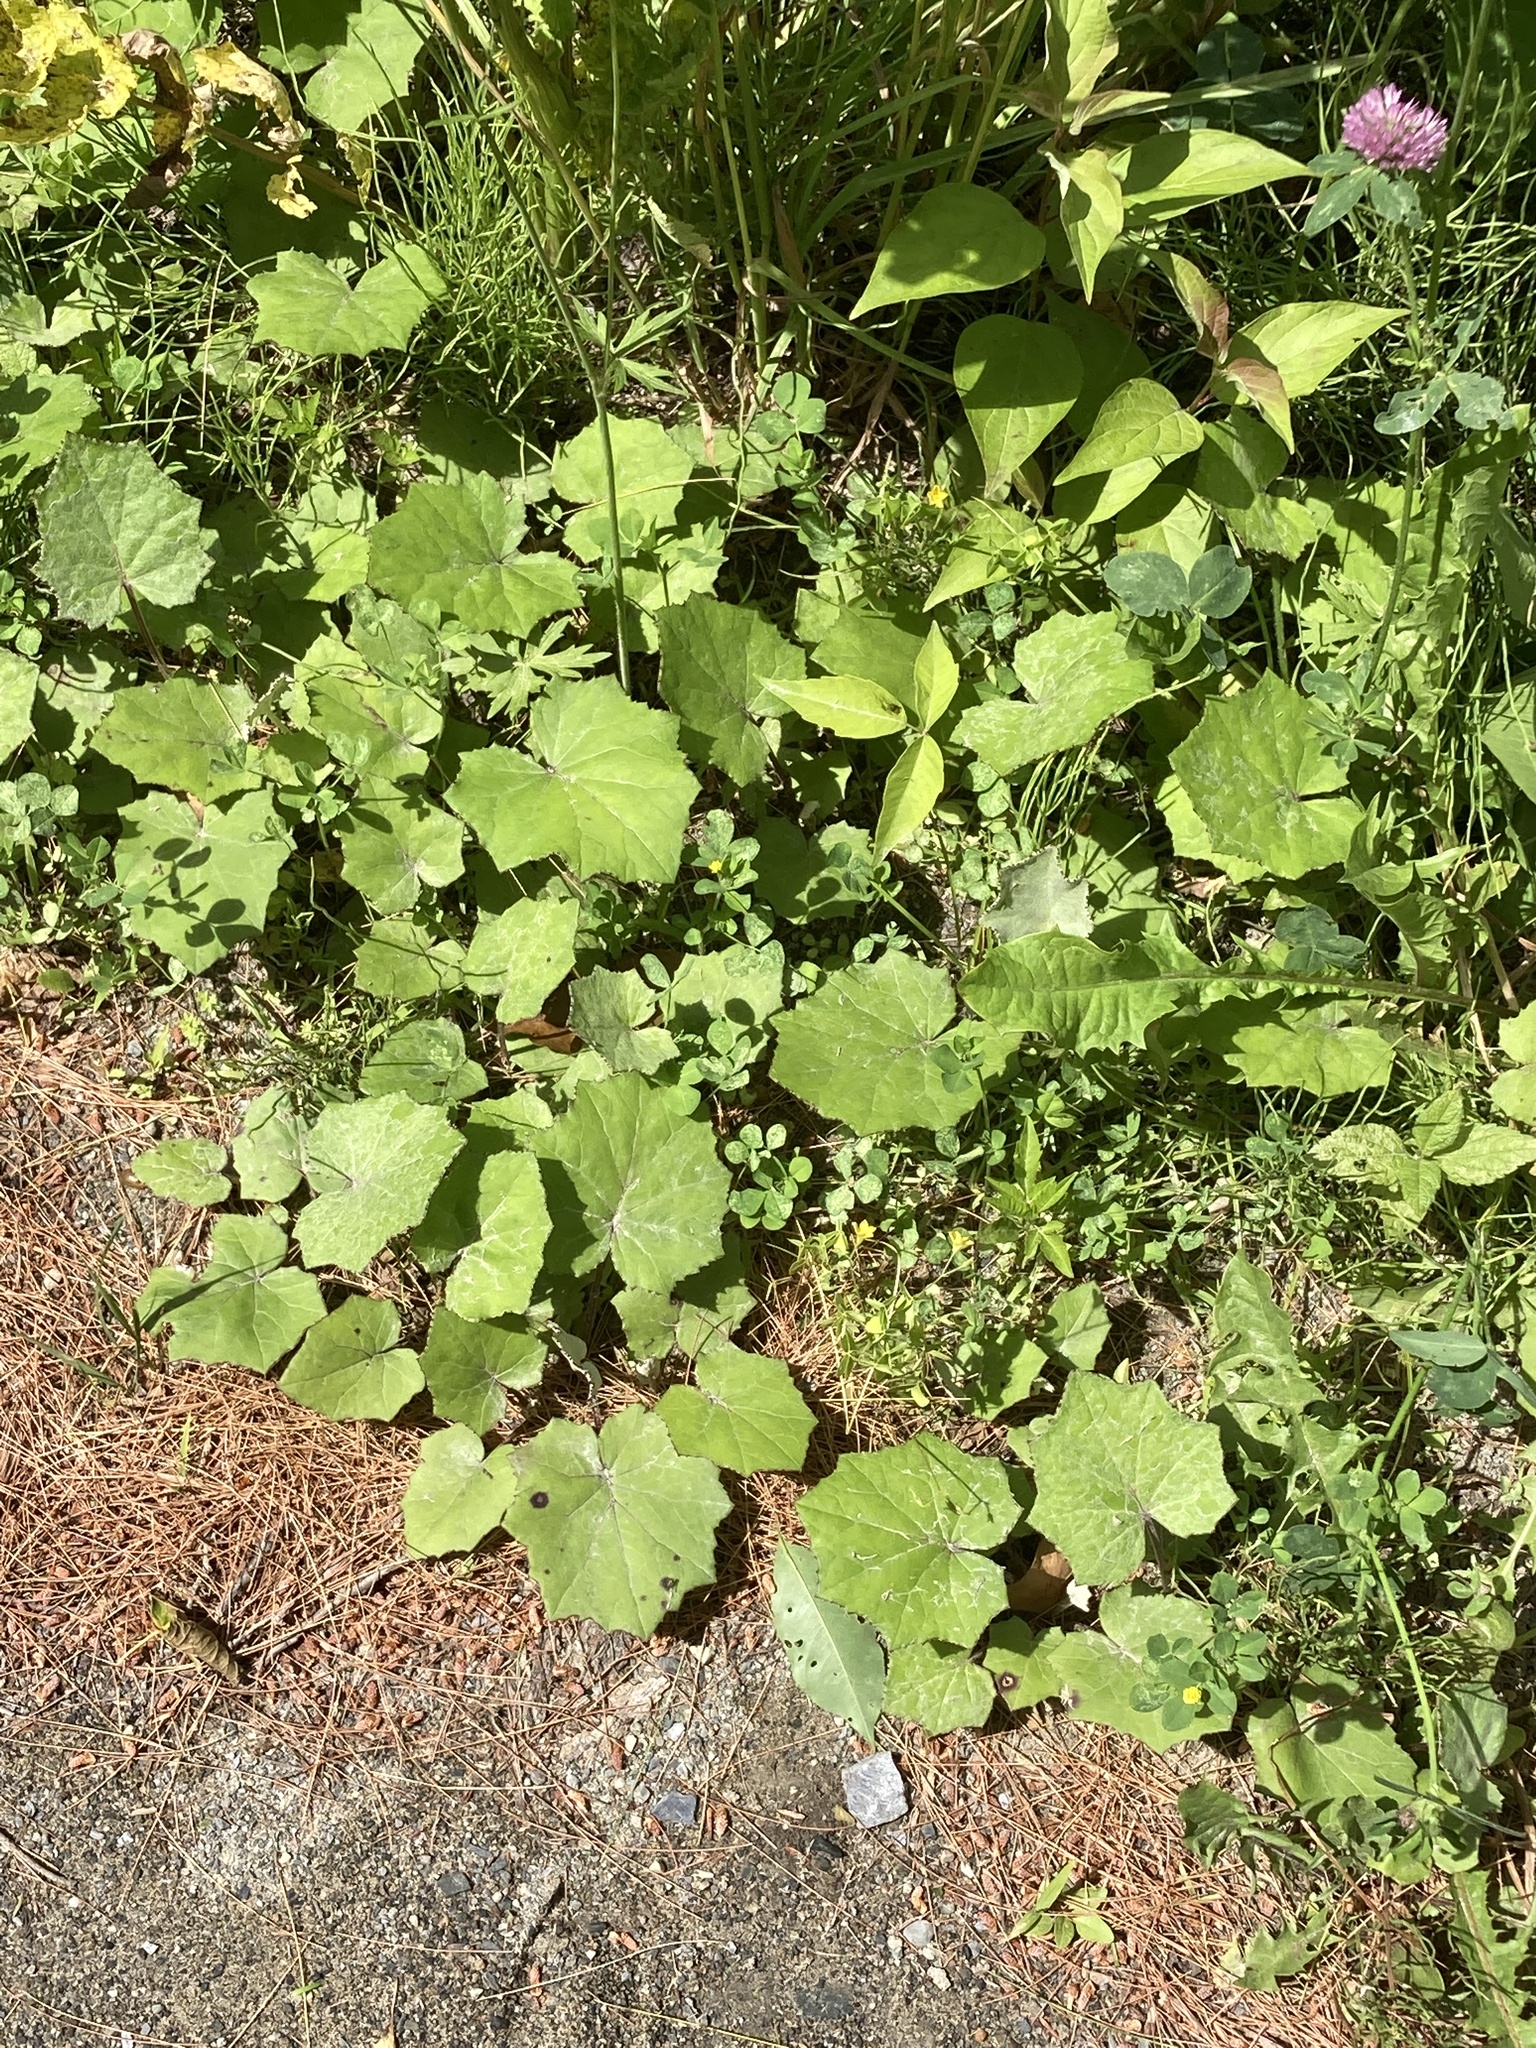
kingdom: Plantae
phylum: Tracheophyta
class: Magnoliopsida
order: Asterales
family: Asteraceae
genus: Tussilago
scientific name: Tussilago farfara
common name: Coltsfoot
